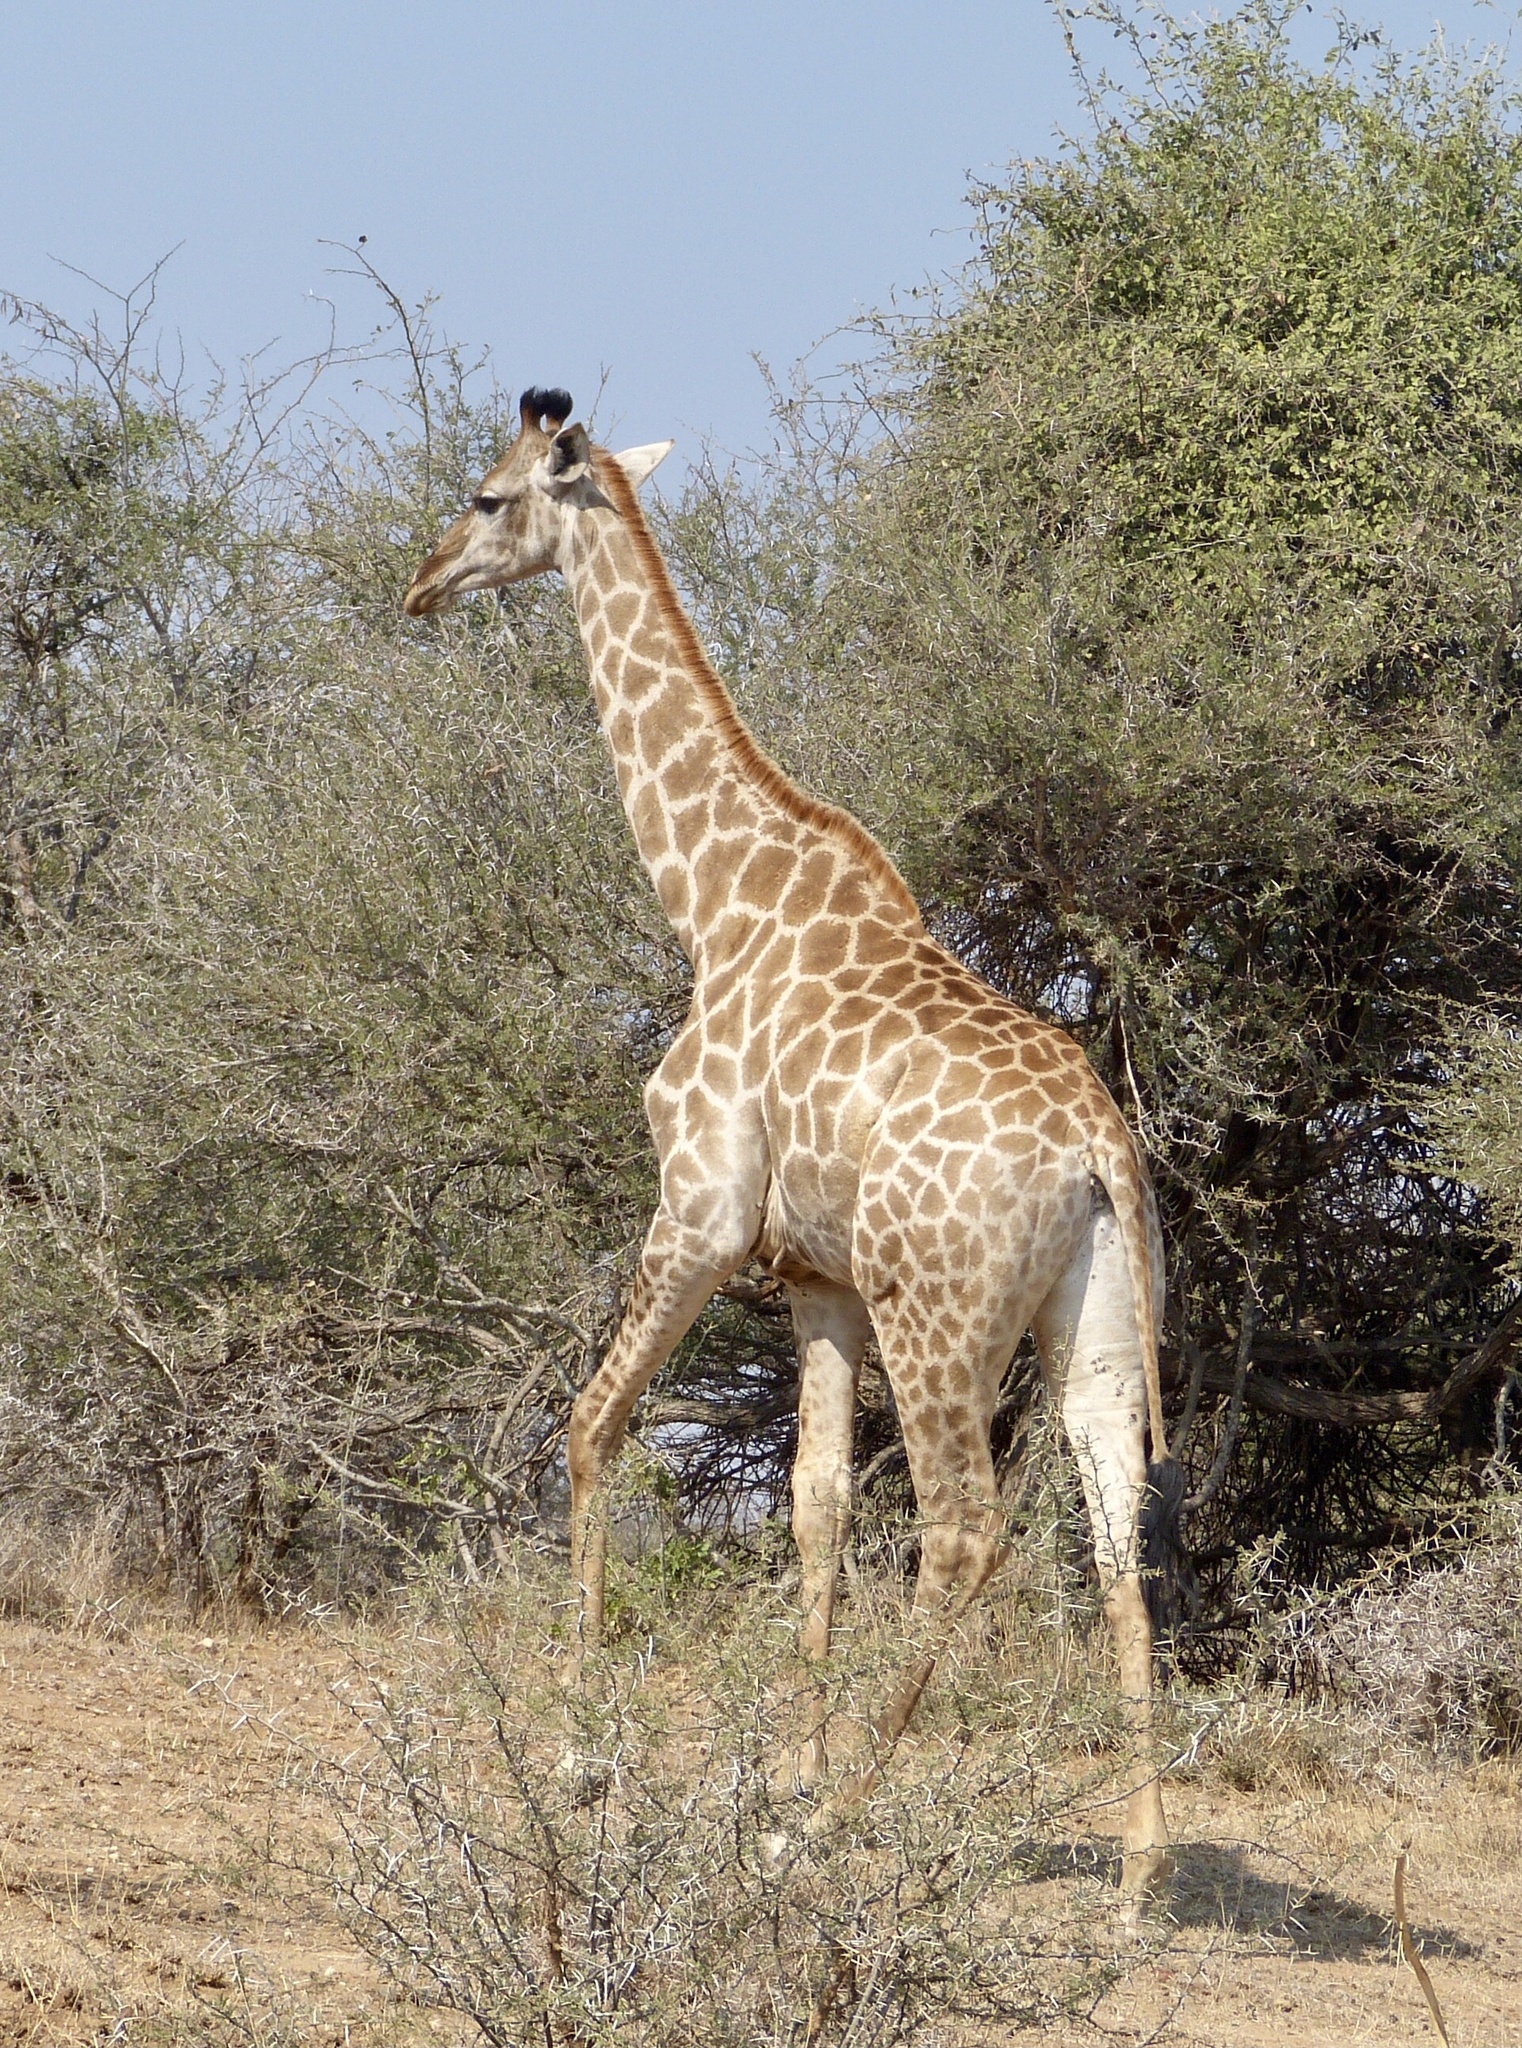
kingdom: Animalia
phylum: Chordata
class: Mammalia
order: Artiodactyla
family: Giraffidae
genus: Giraffa
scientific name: Giraffa giraffa
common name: Southern giraffe
